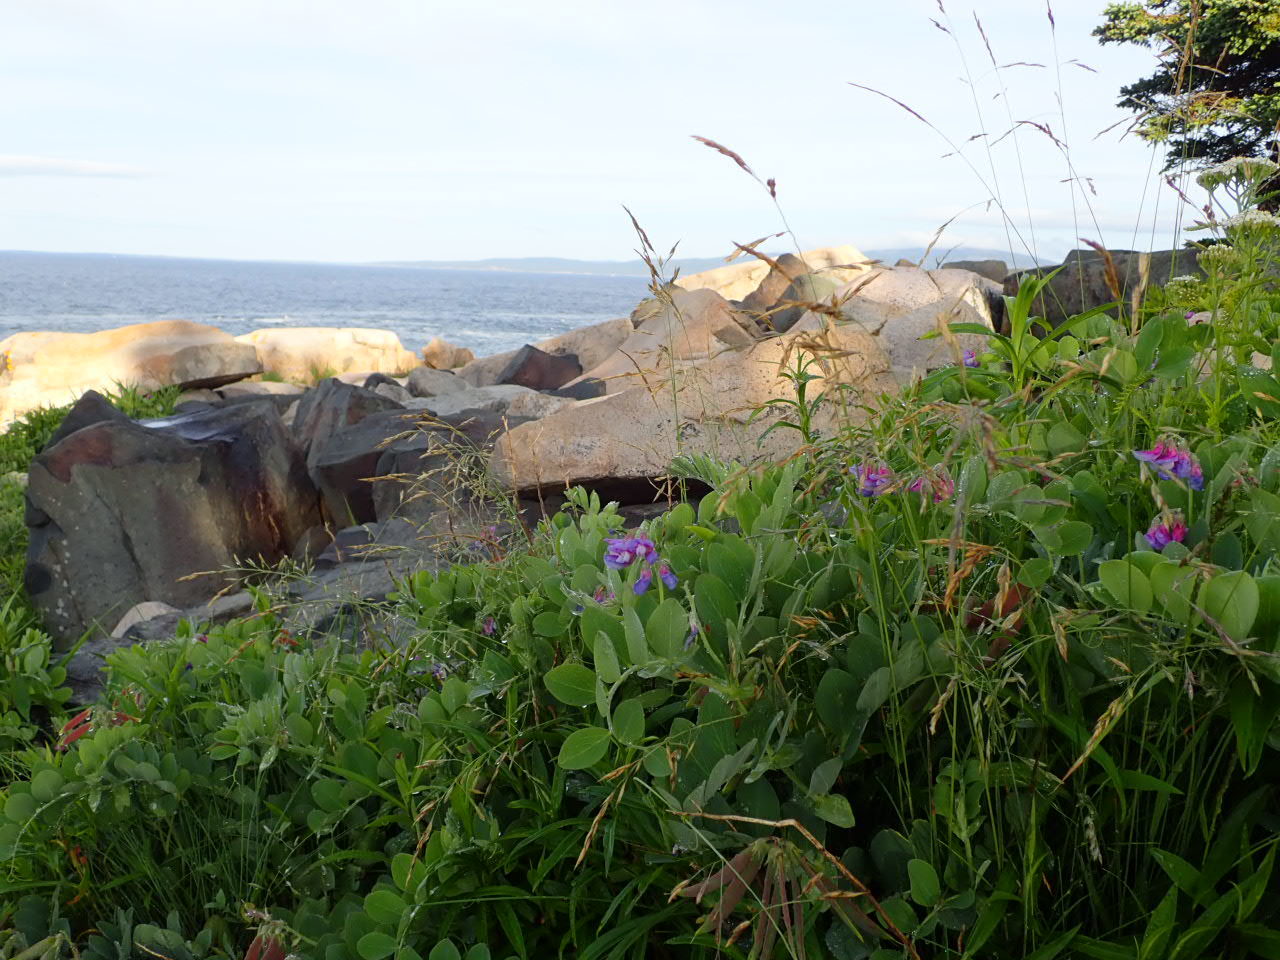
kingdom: Plantae
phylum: Tracheophyta
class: Magnoliopsida
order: Fabales
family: Fabaceae
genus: Lathyrus
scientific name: Lathyrus japonicus
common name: Sea pea
